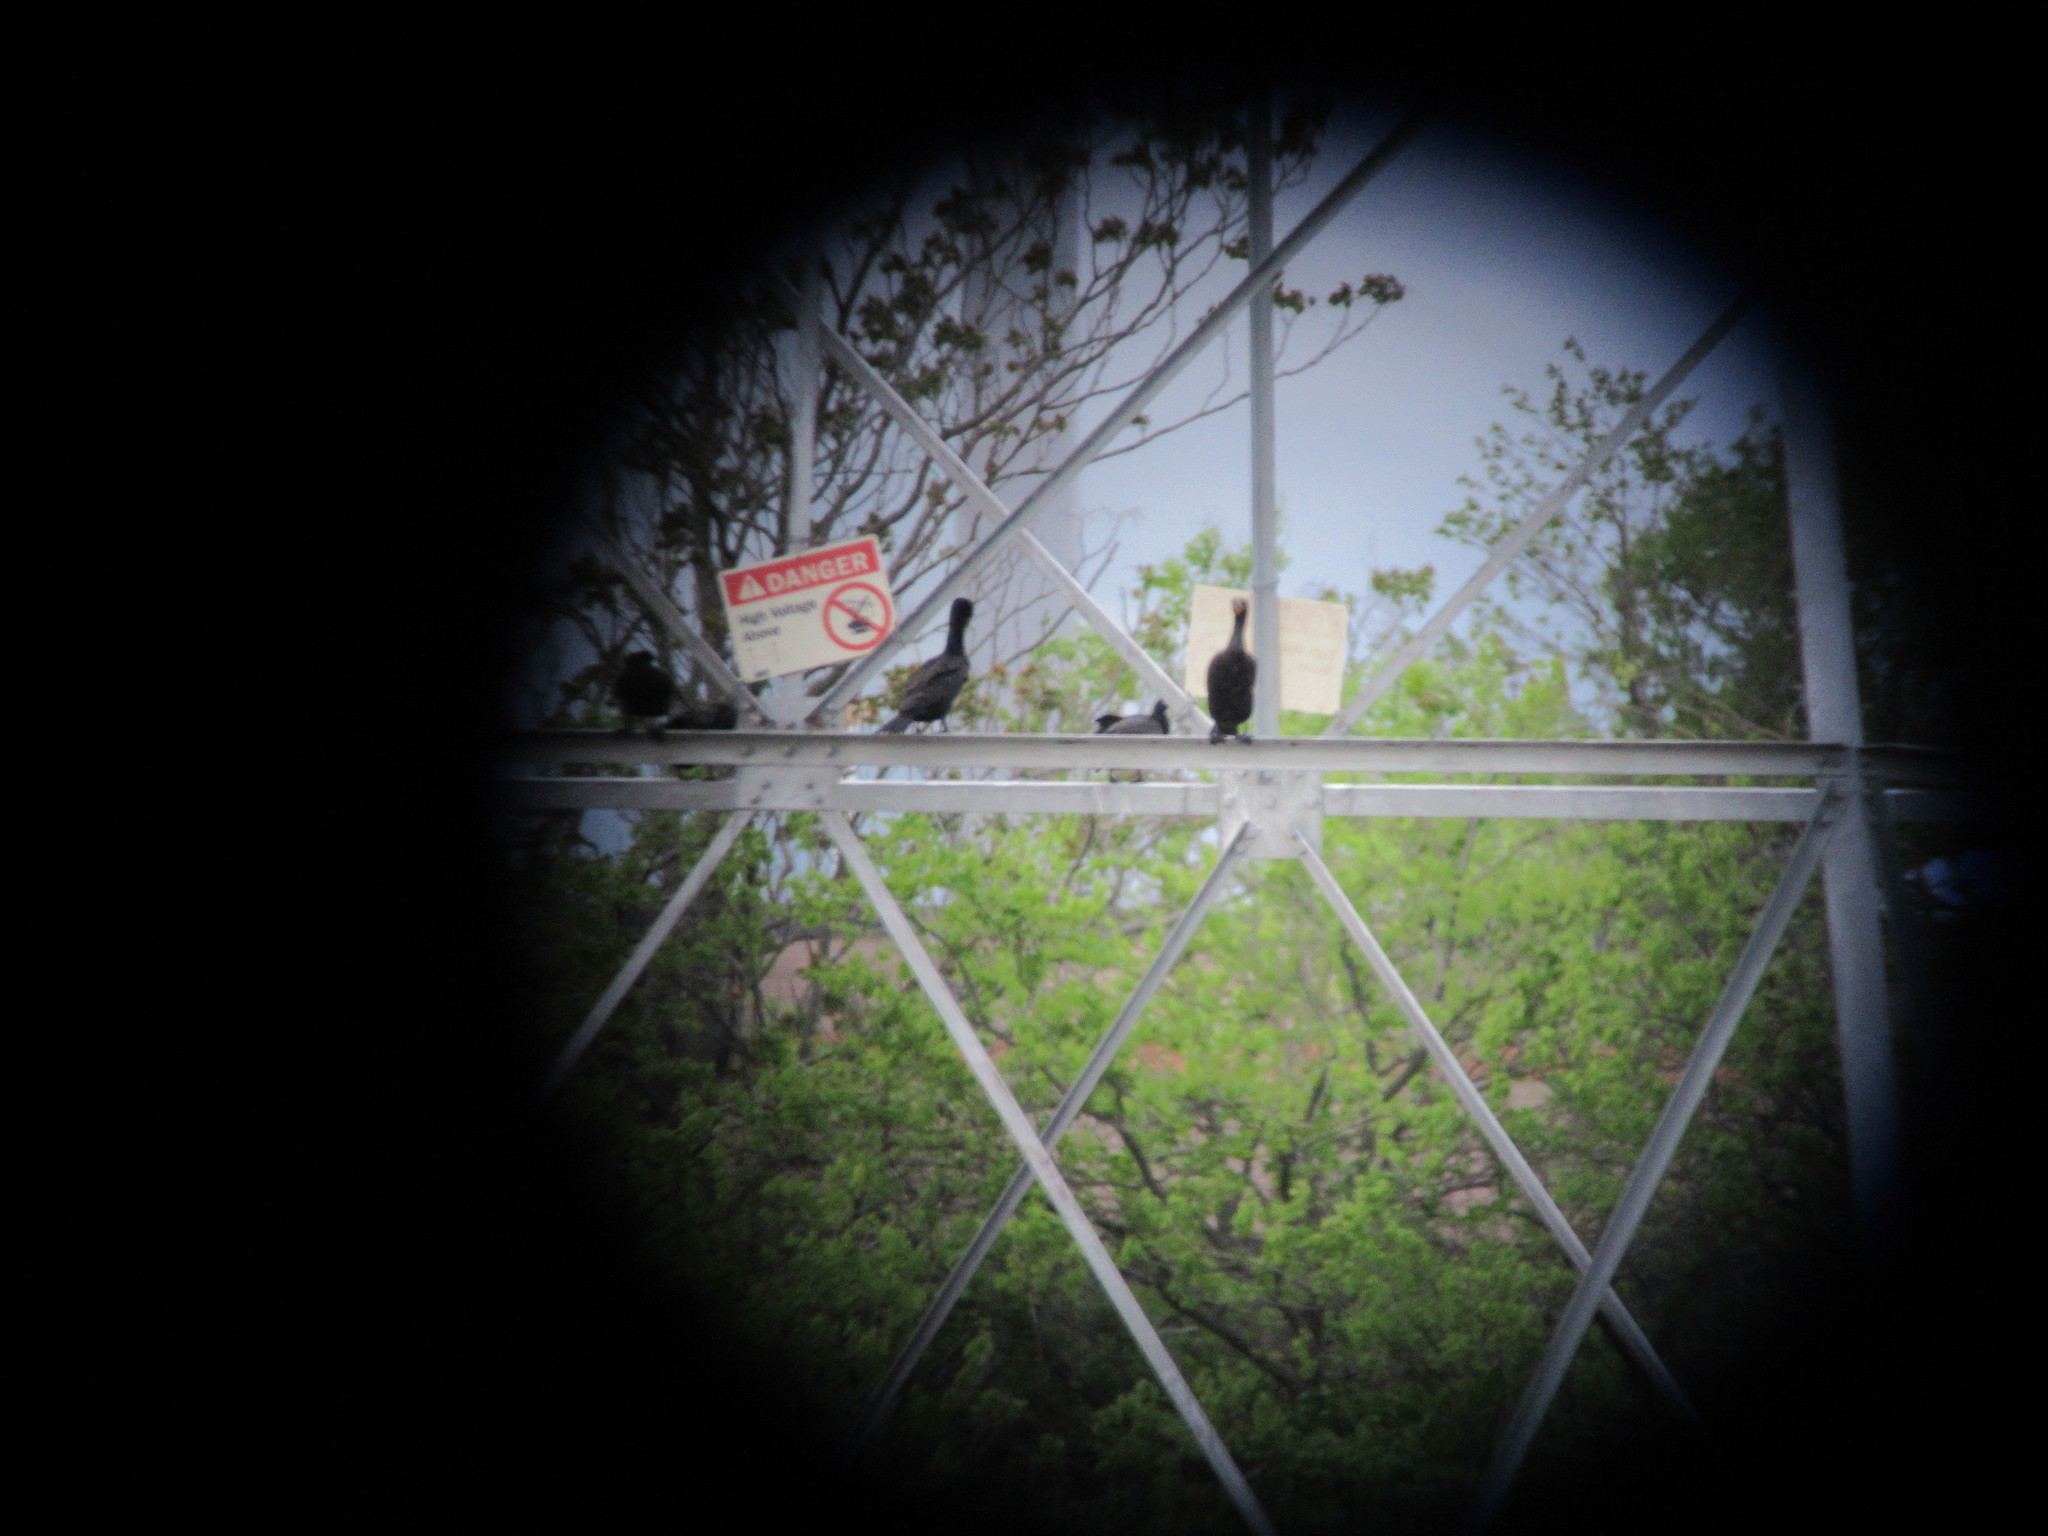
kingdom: Animalia
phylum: Chordata
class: Aves
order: Suliformes
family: Phalacrocoracidae
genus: Phalacrocorax
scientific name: Phalacrocorax auritus
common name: Double-crested cormorant
